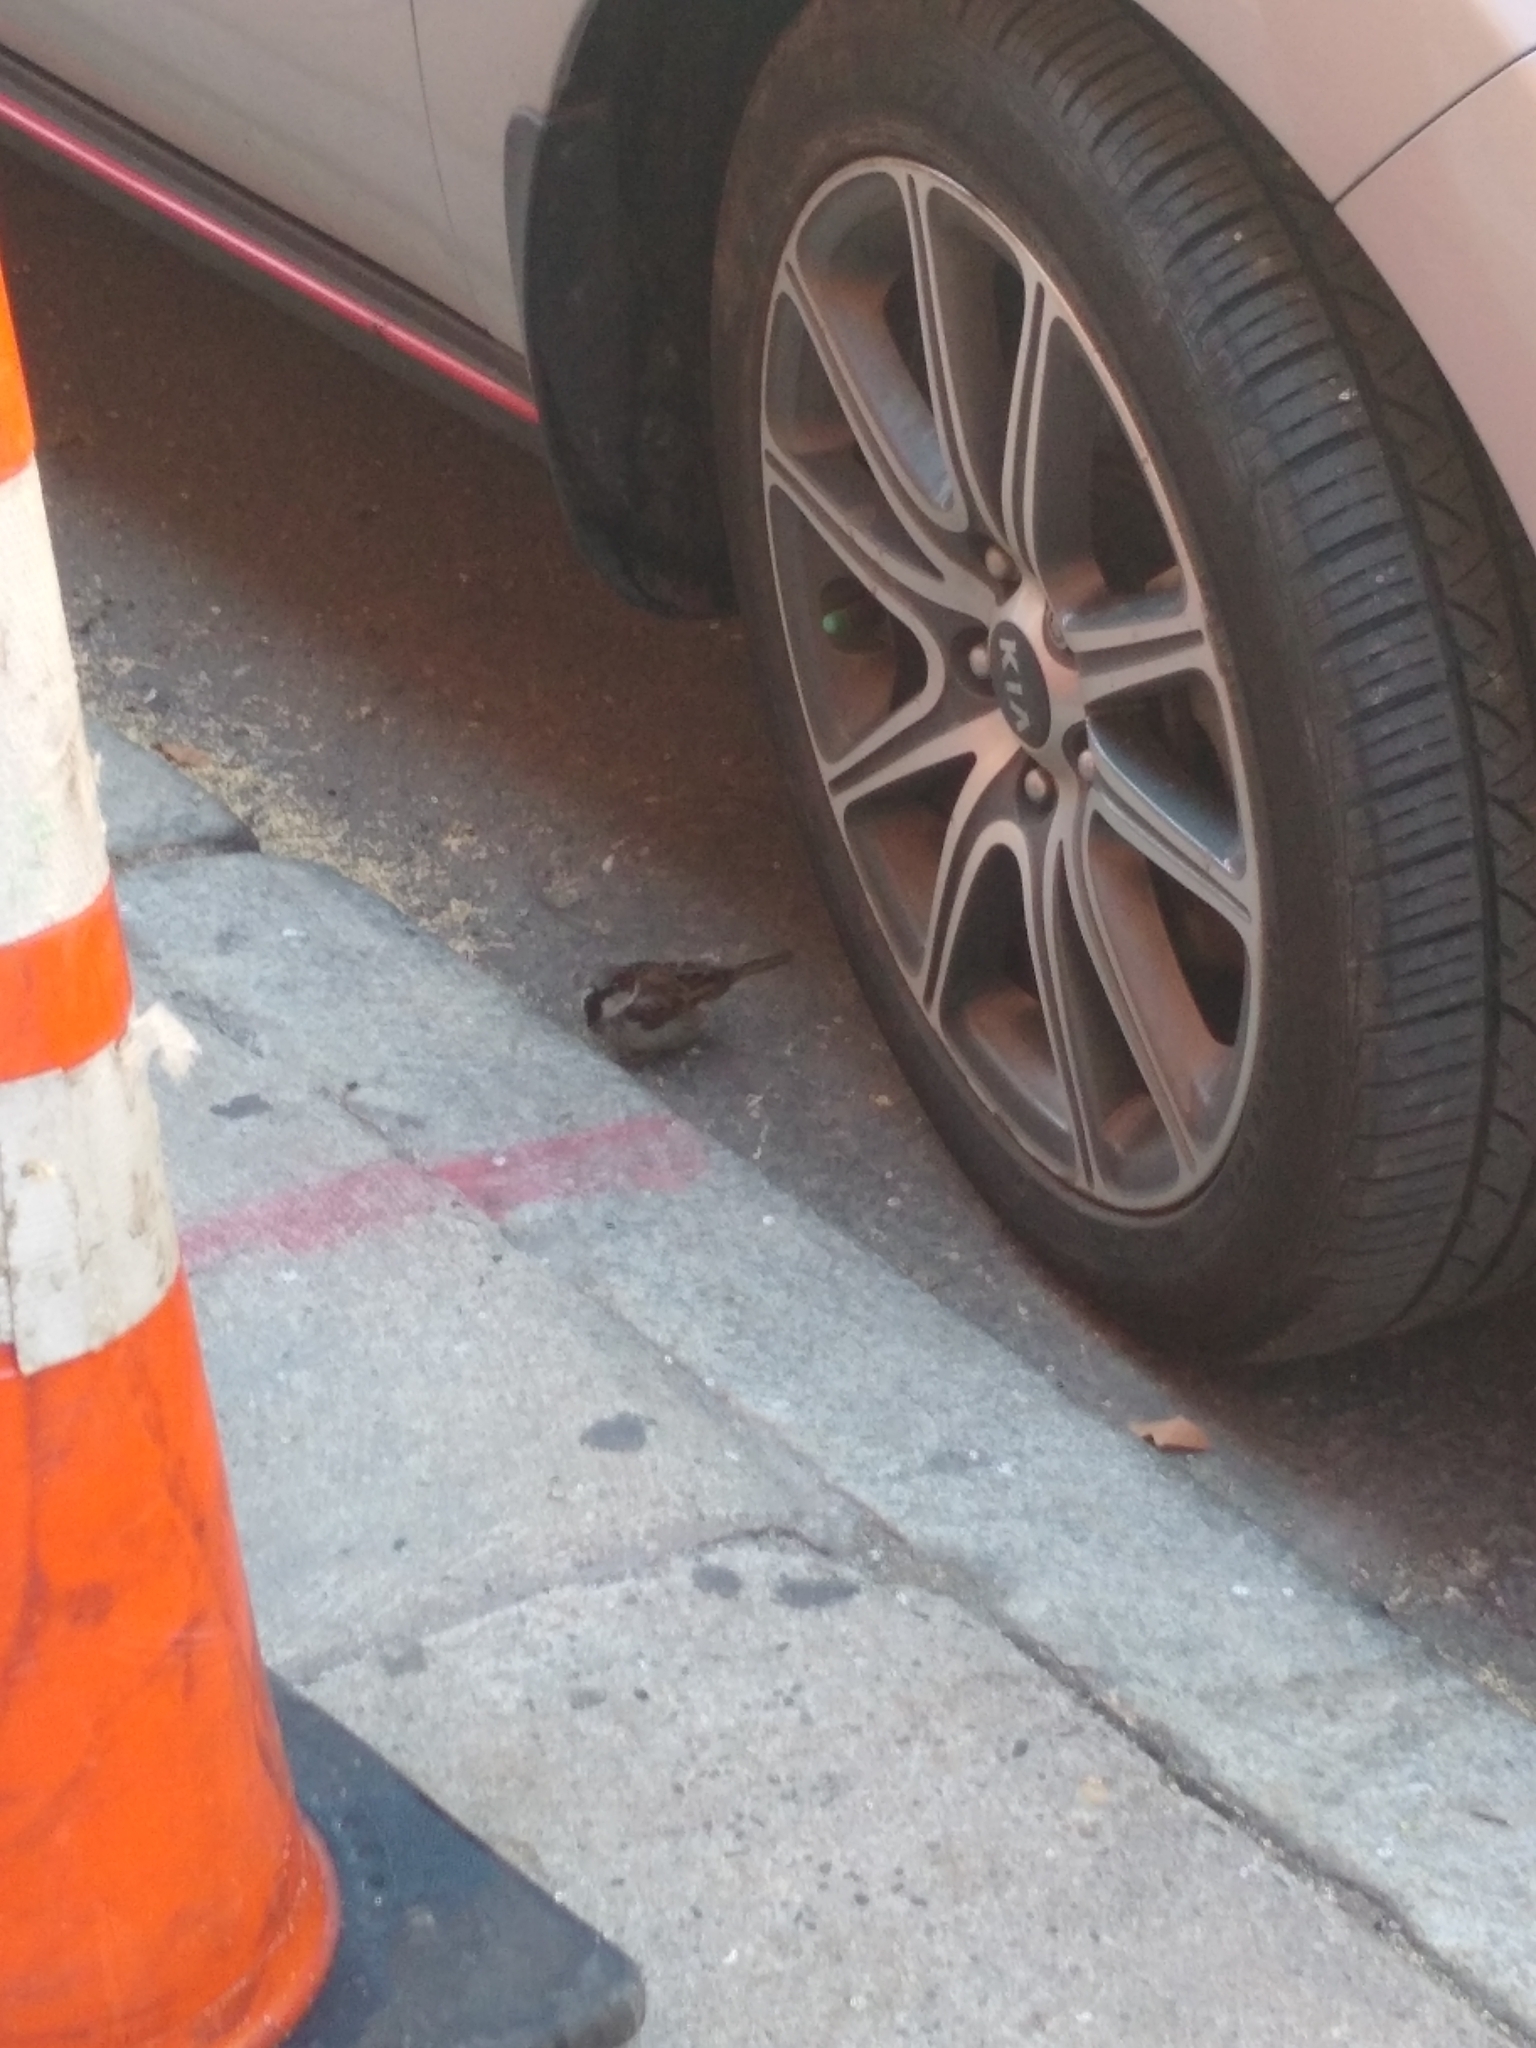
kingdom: Animalia
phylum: Chordata
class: Aves
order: Passeriformes
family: Passeridae
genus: Passer
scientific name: Passer domesticus
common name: House sparrow
